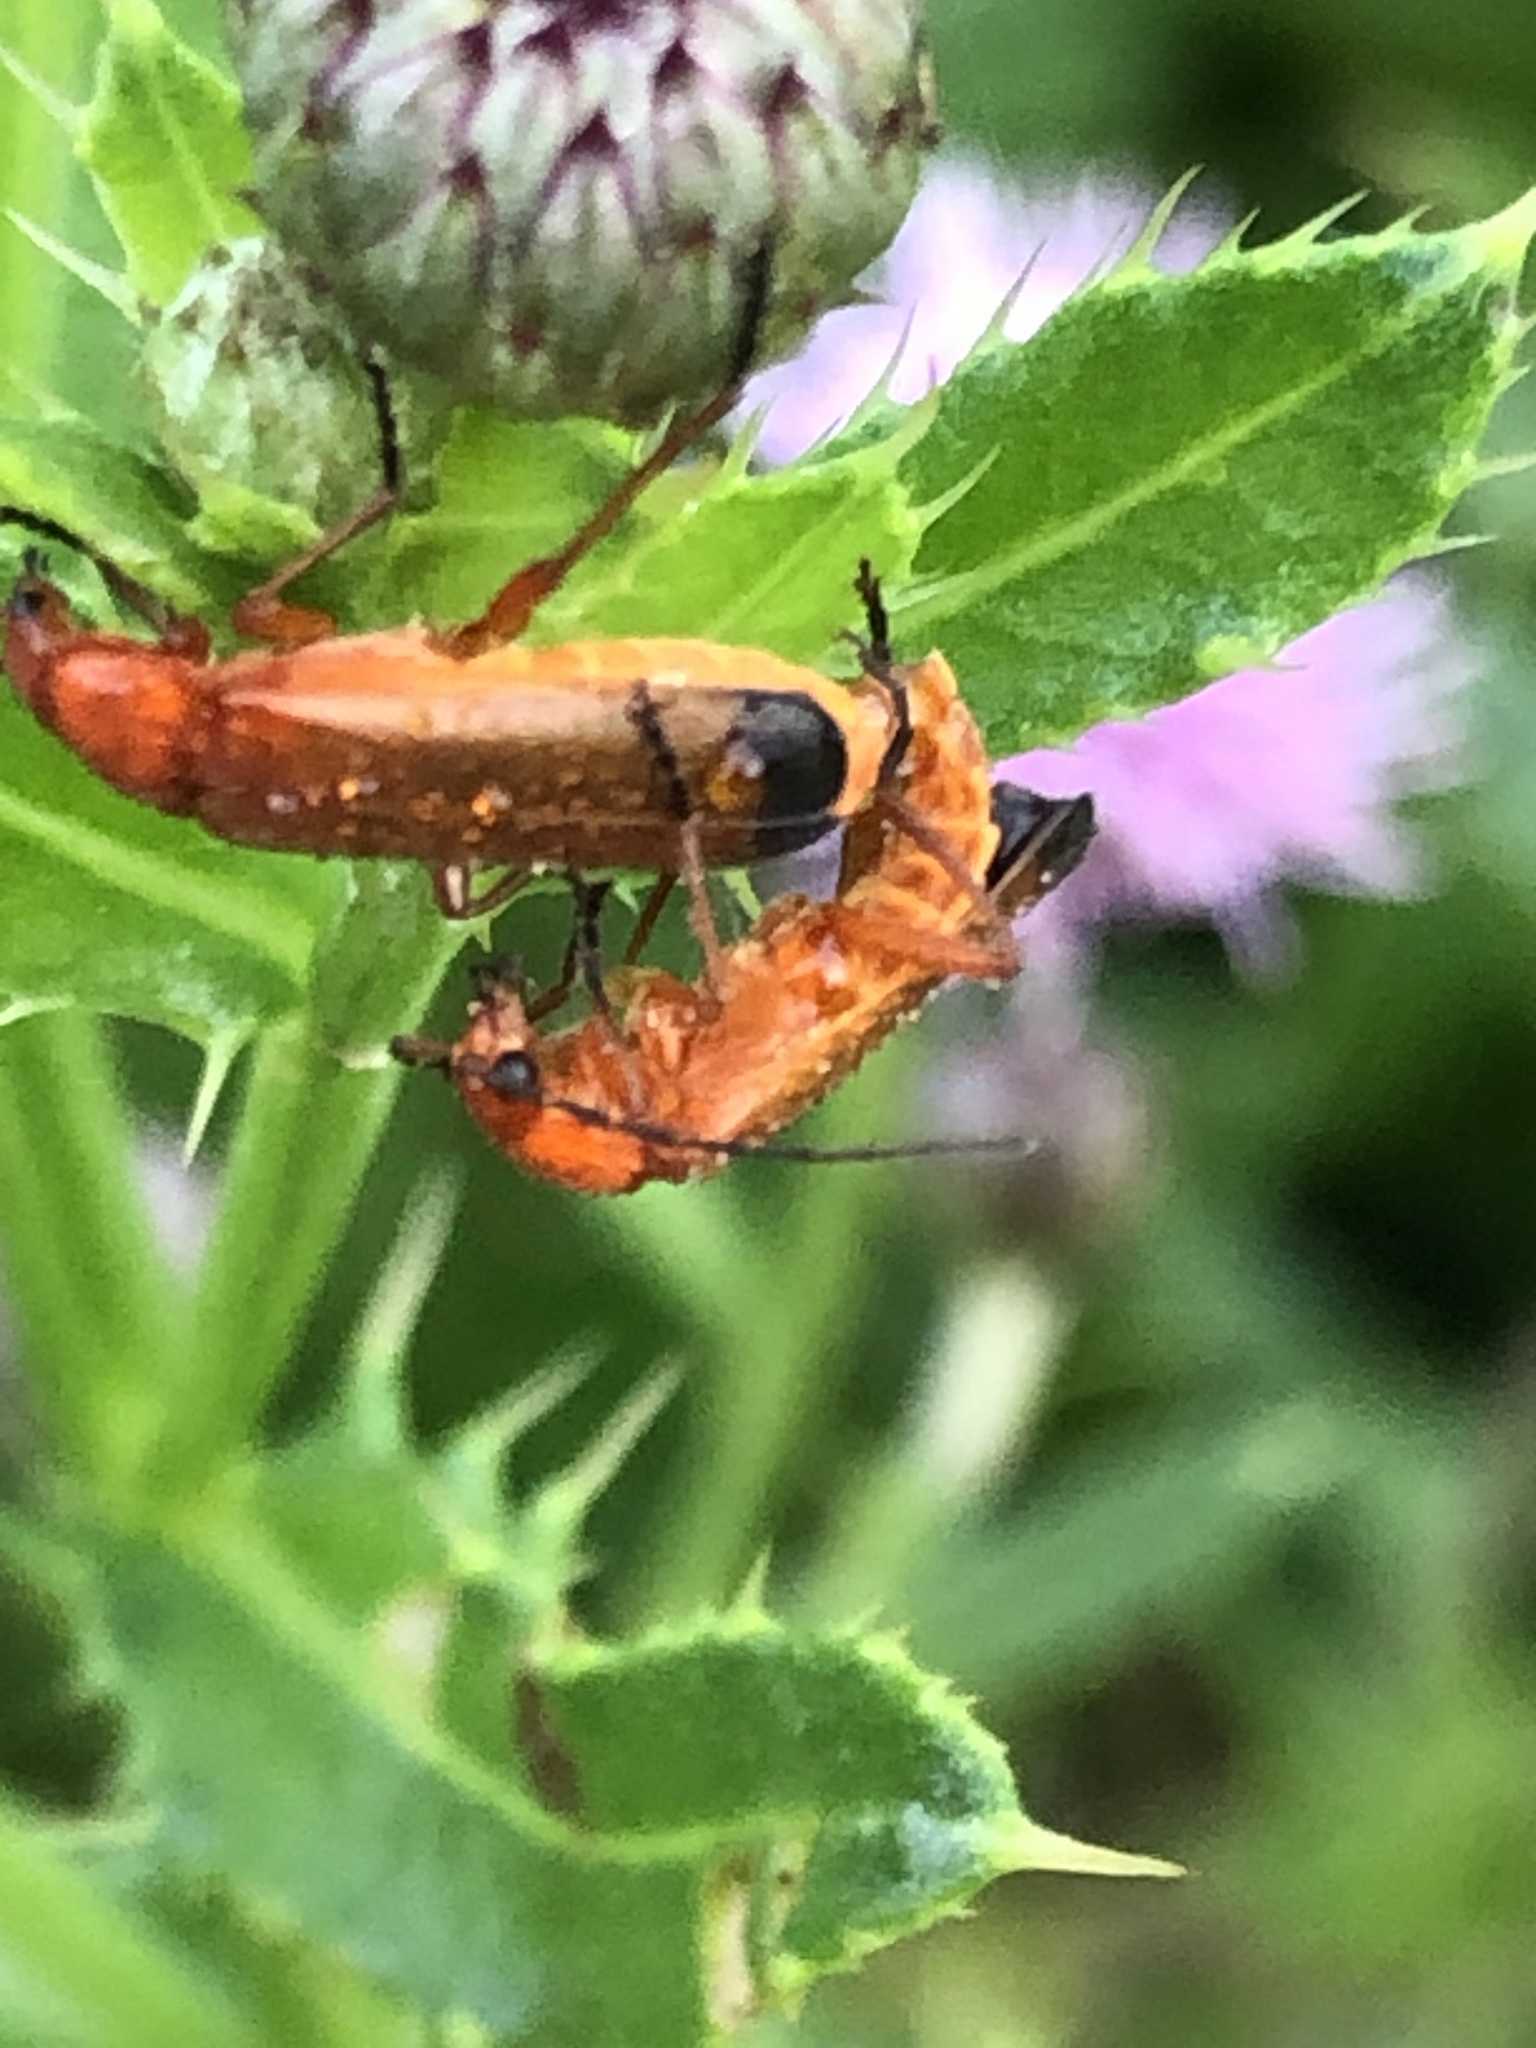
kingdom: Animalia
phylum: Arthropoda
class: Insecta
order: Coleoptera
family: Cantharidae
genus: Rhagonycha
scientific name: Rhagonycha fulva
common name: Common red soldier beetle
